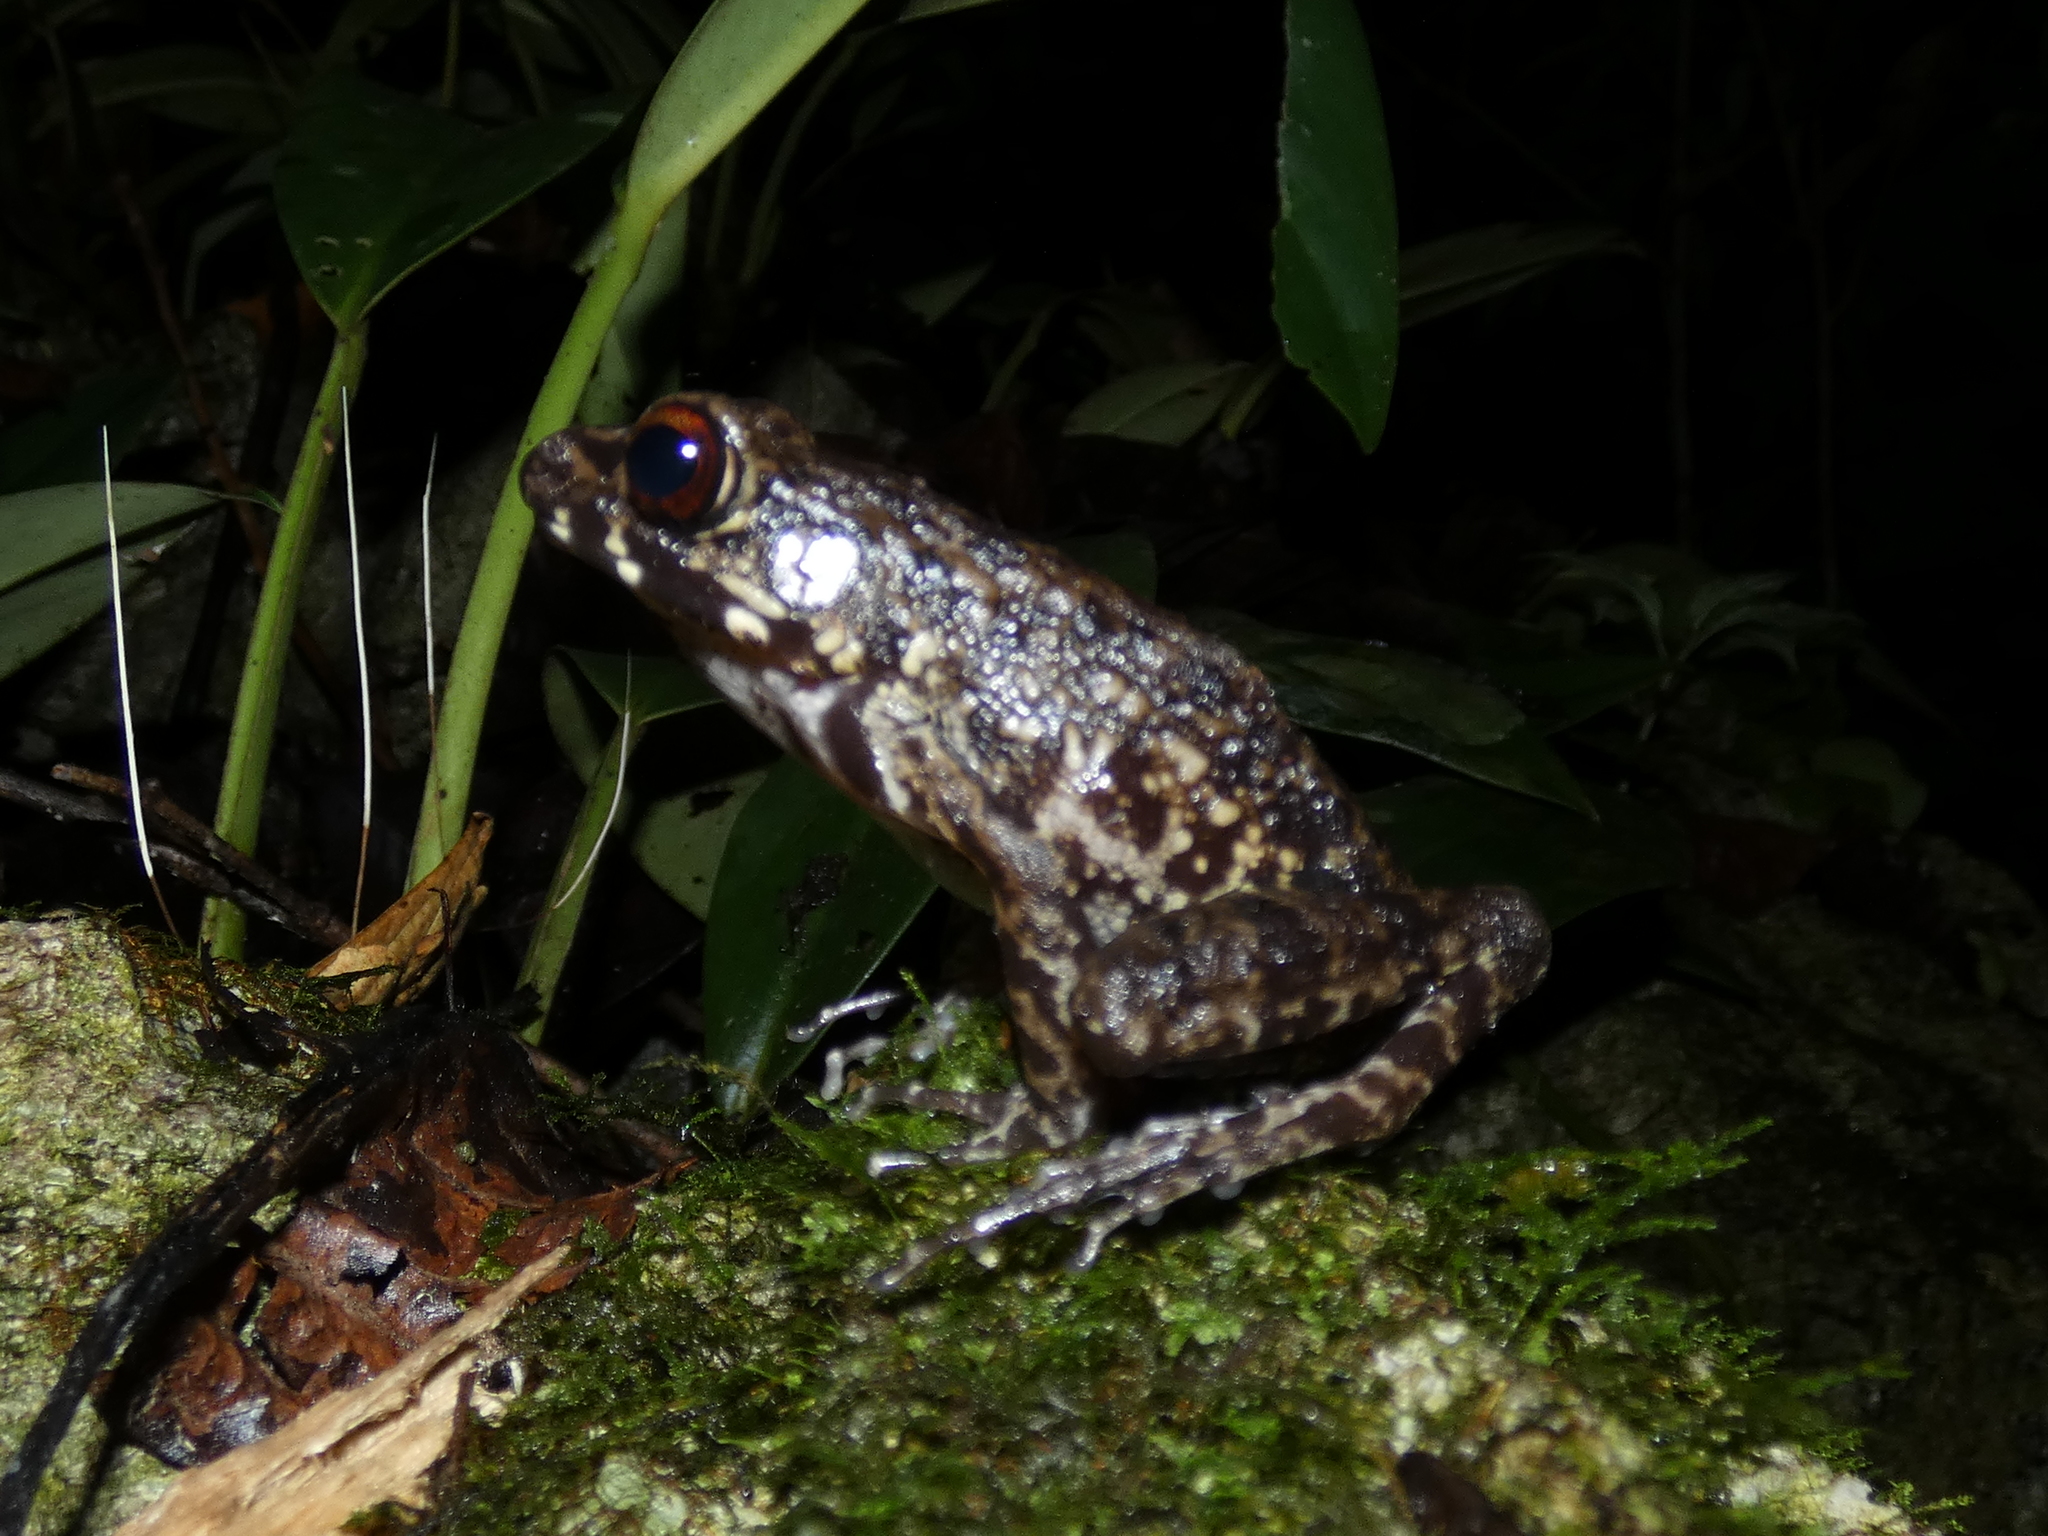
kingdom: Animalia
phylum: Chordata
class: Amphibia
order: Anura
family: Ranidae
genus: Pulchrana
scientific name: Pulchrana glandulosa
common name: Rough-sided frog
